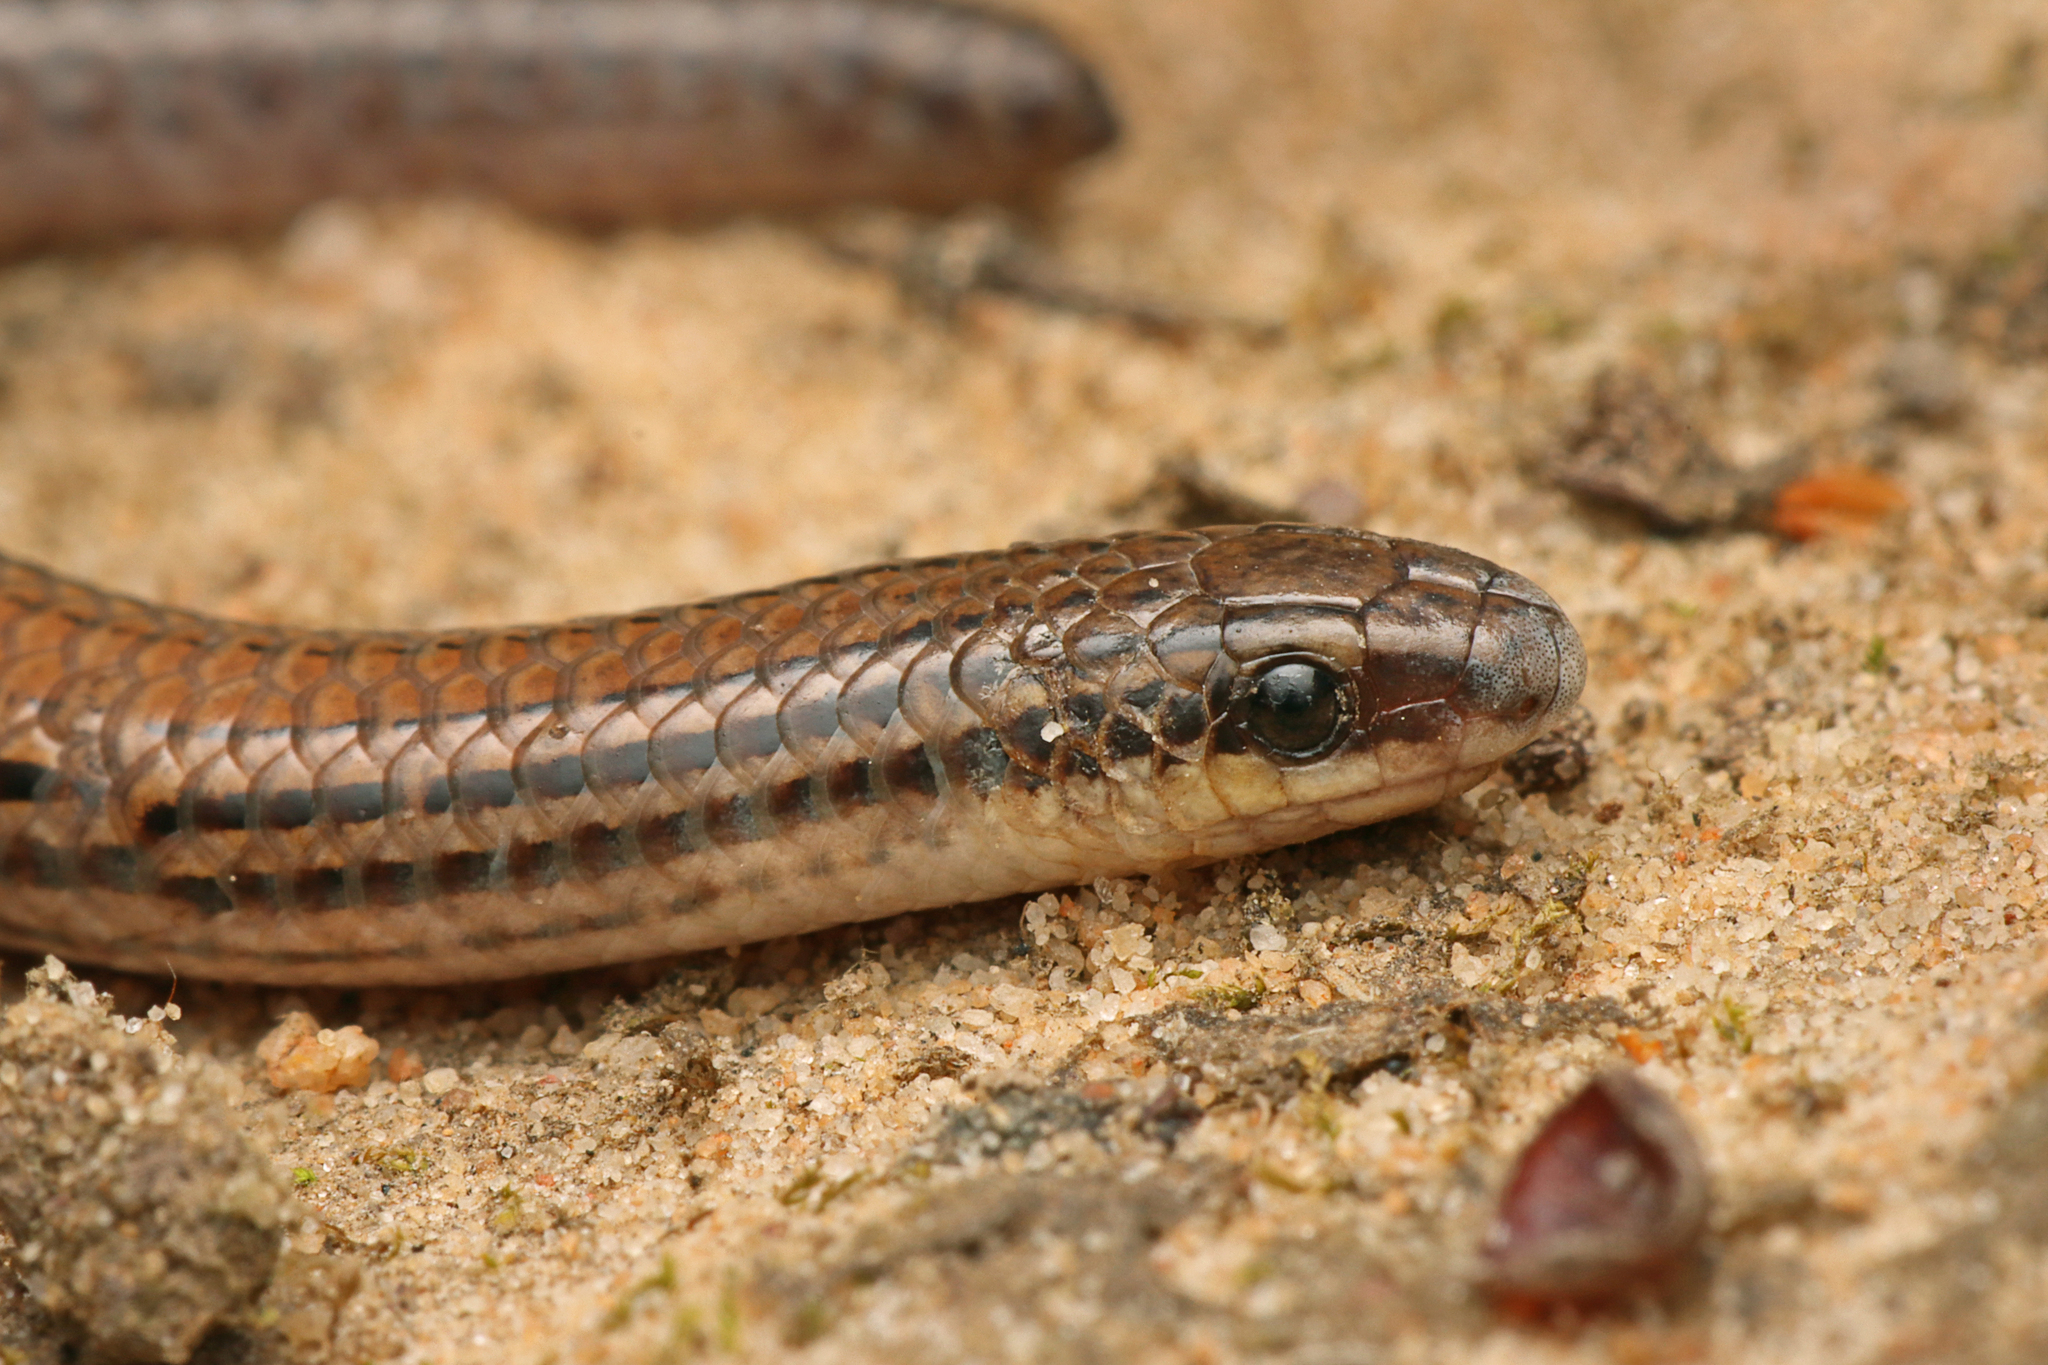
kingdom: Animalia
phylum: Chordata
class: Squamata
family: Pygopodidae
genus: Aprasia
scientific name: Aprasia striolata
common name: Striated worm-lizard
